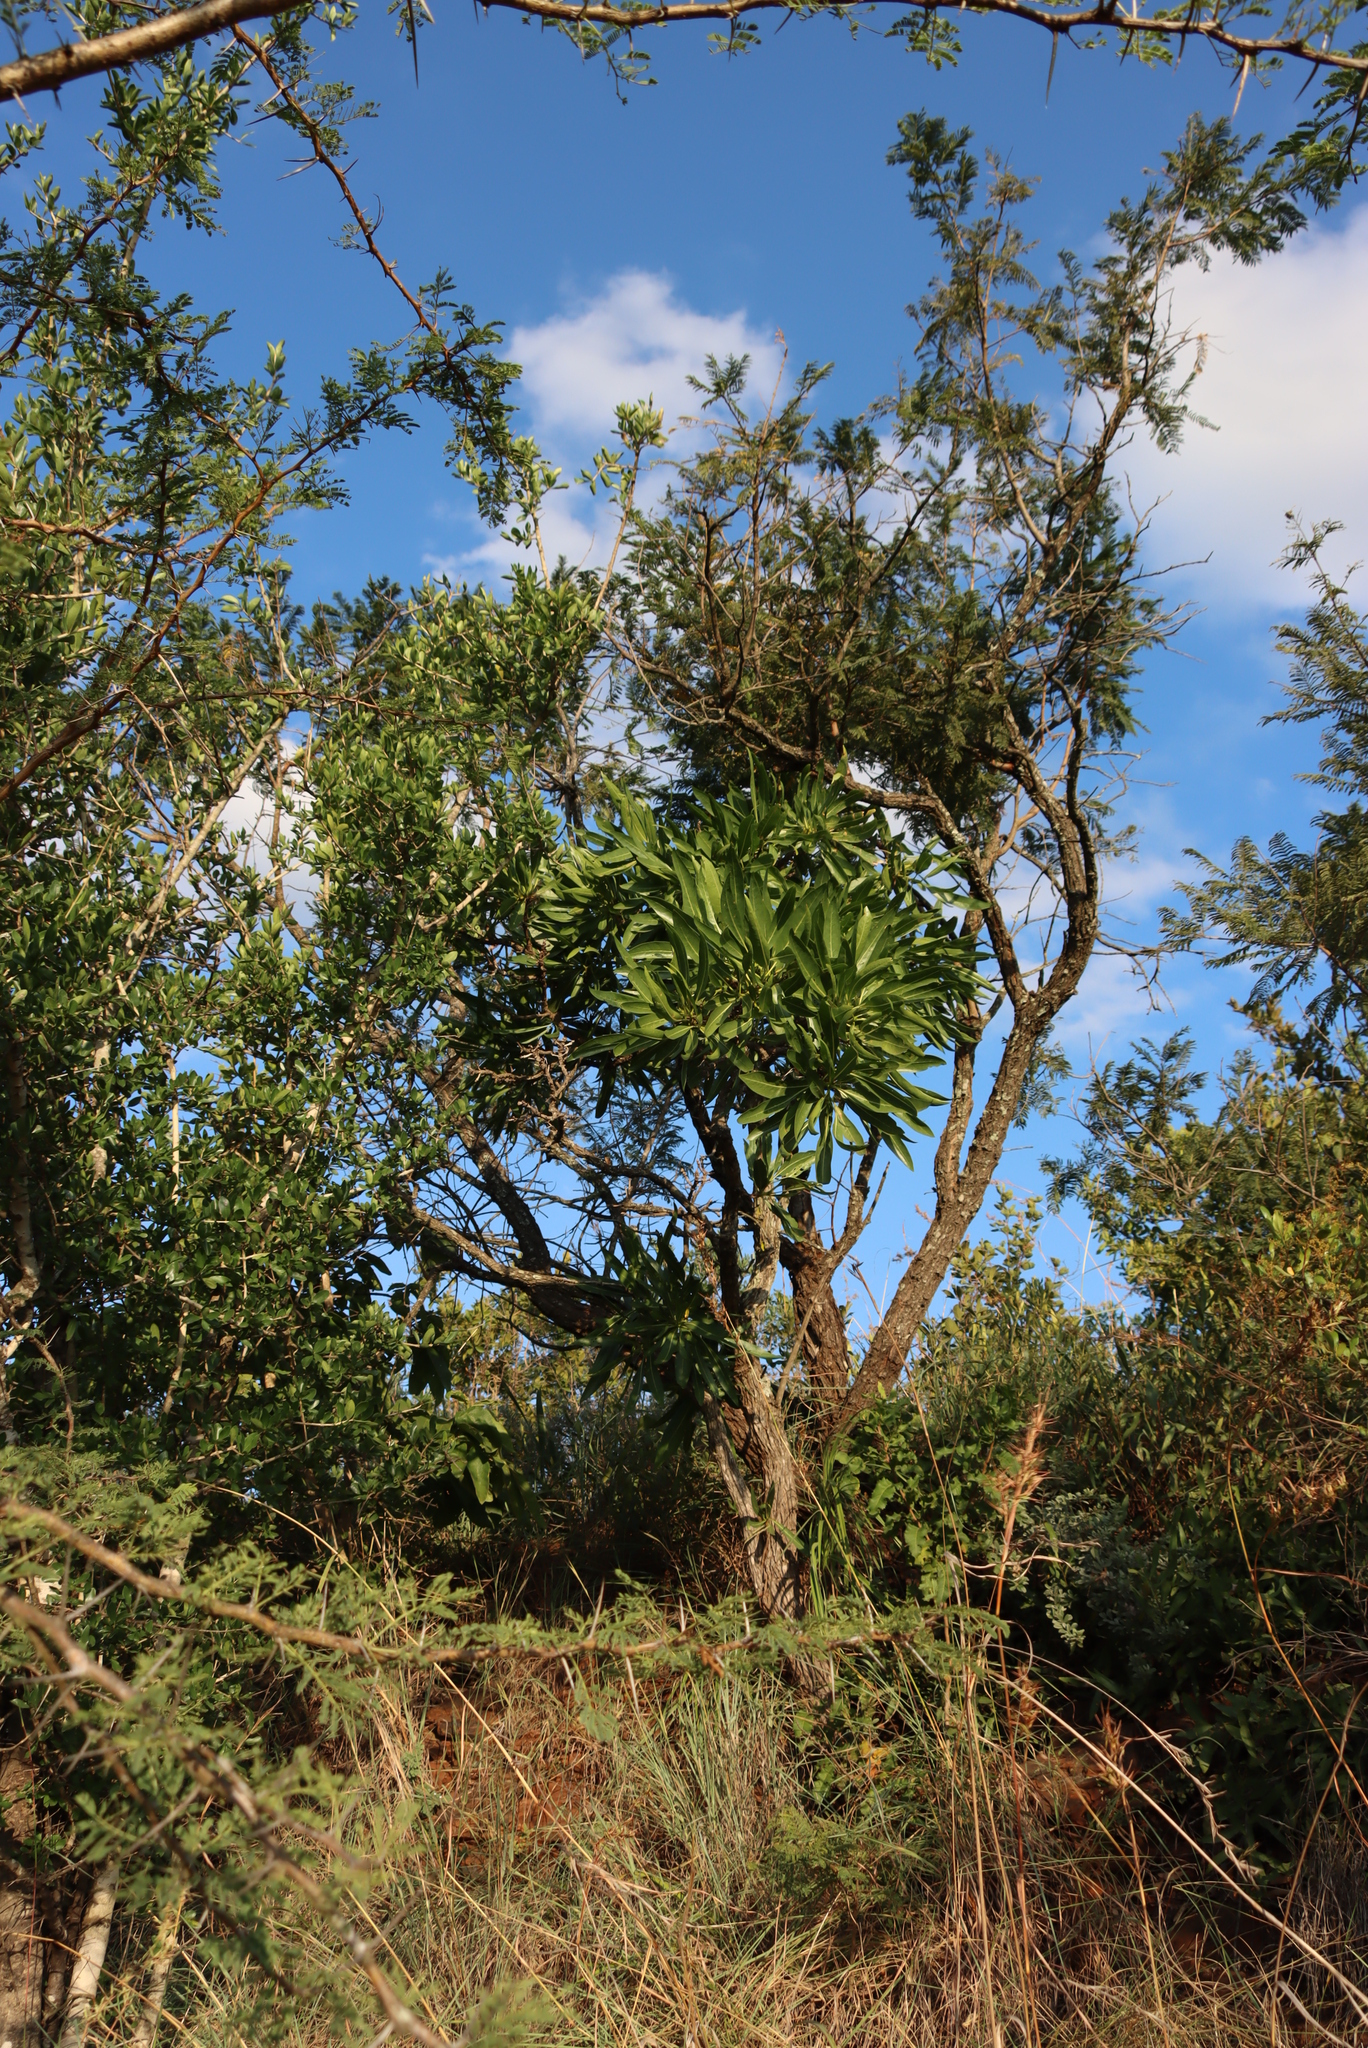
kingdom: Plantae
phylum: Tracheophyta
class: Magnoliopsida
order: Gentianales
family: Rubiaceae
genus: Pavetta
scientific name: Pavetta edentula
